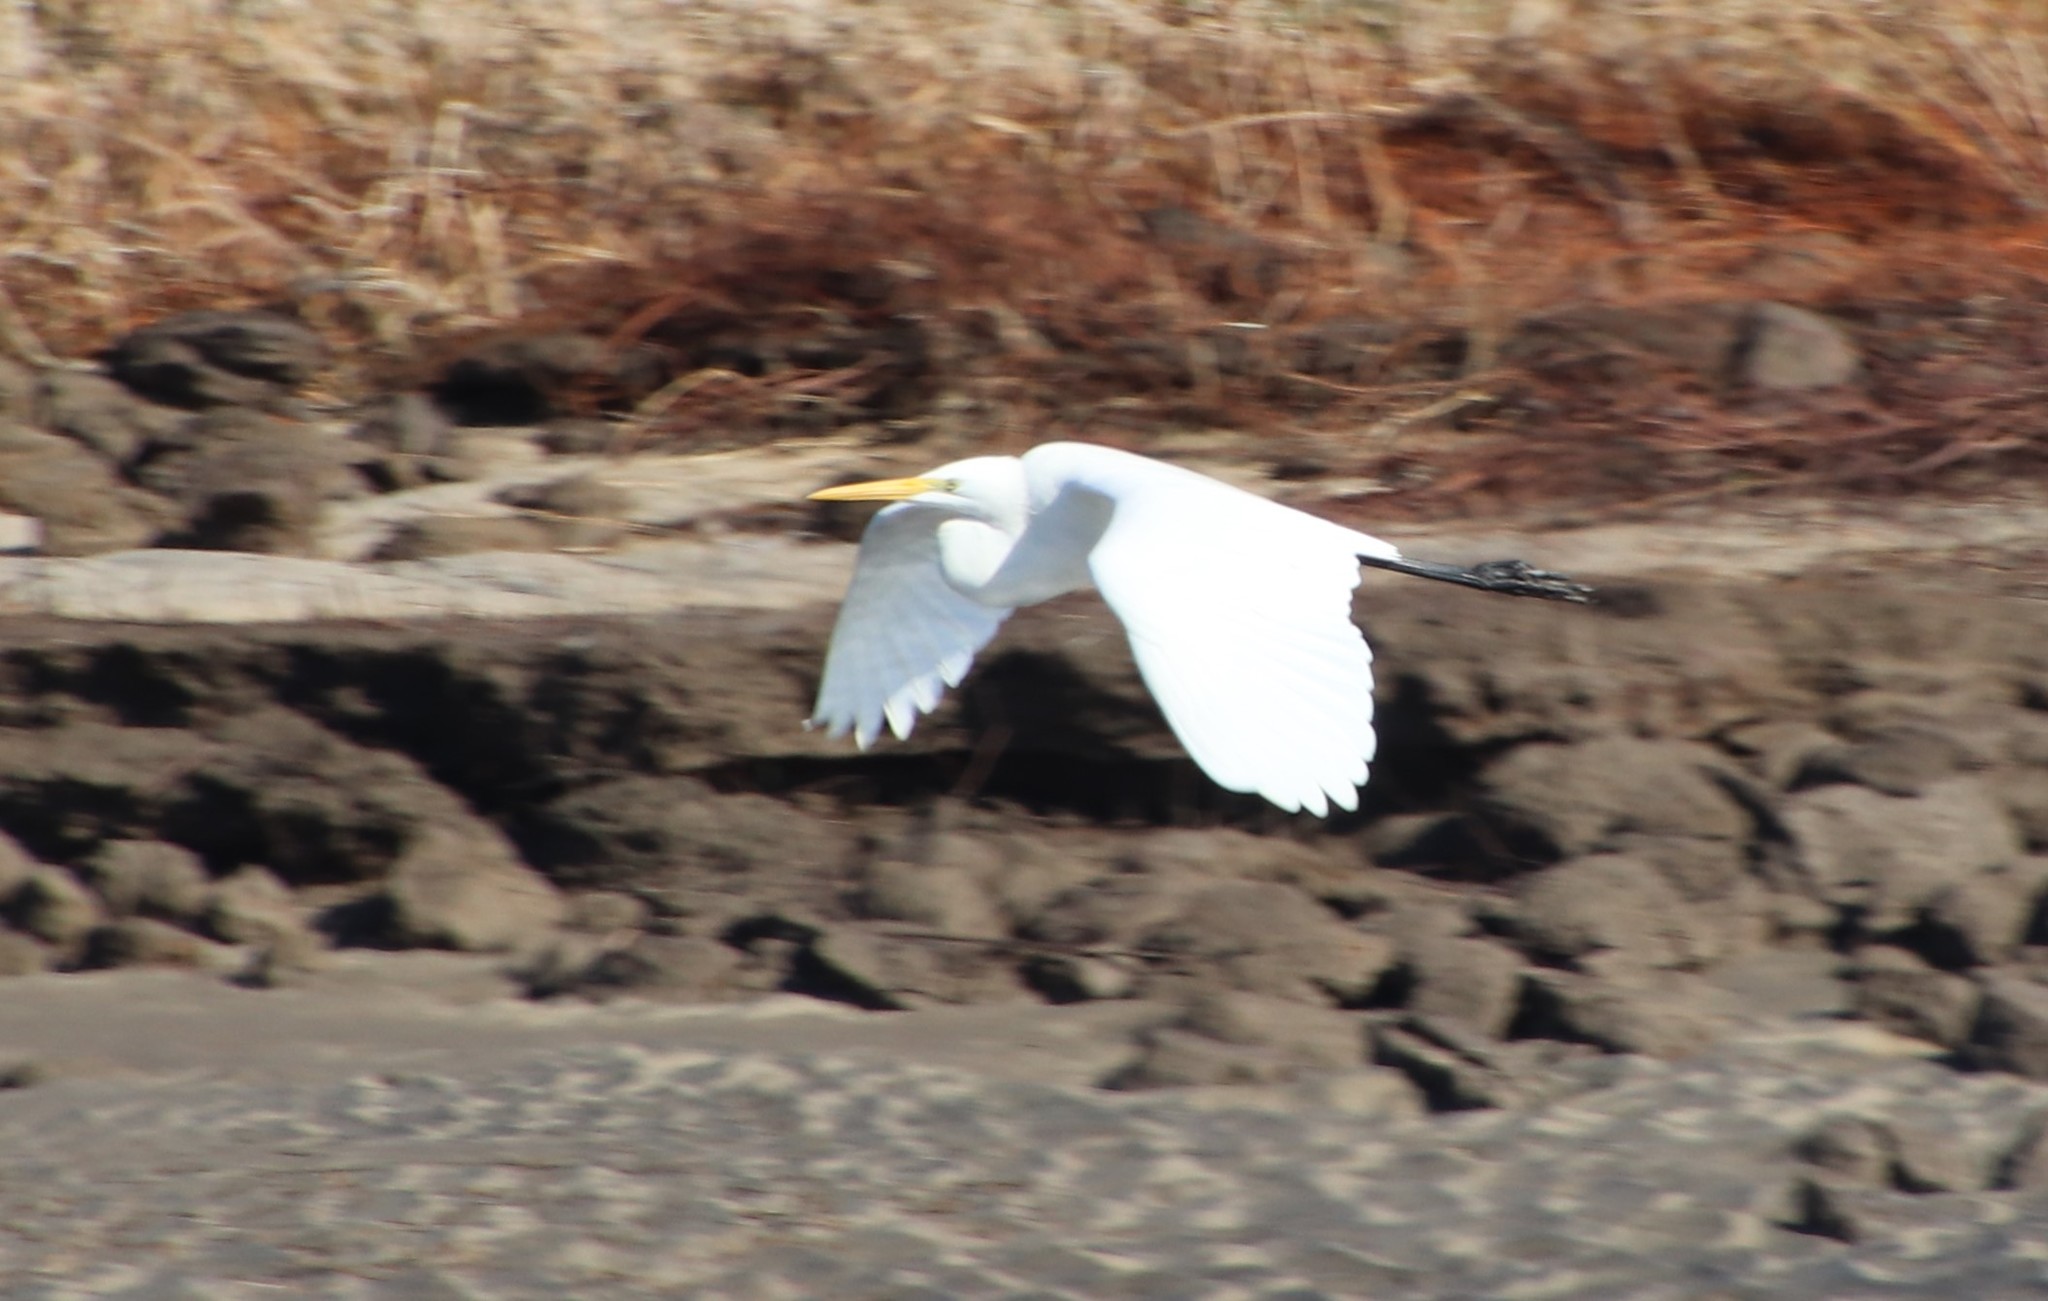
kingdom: Animalia
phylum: Chordata
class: Aves
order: Pelecaniformes
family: Ardeidae
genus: Ardea
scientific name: Ardea alba
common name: Great egret
